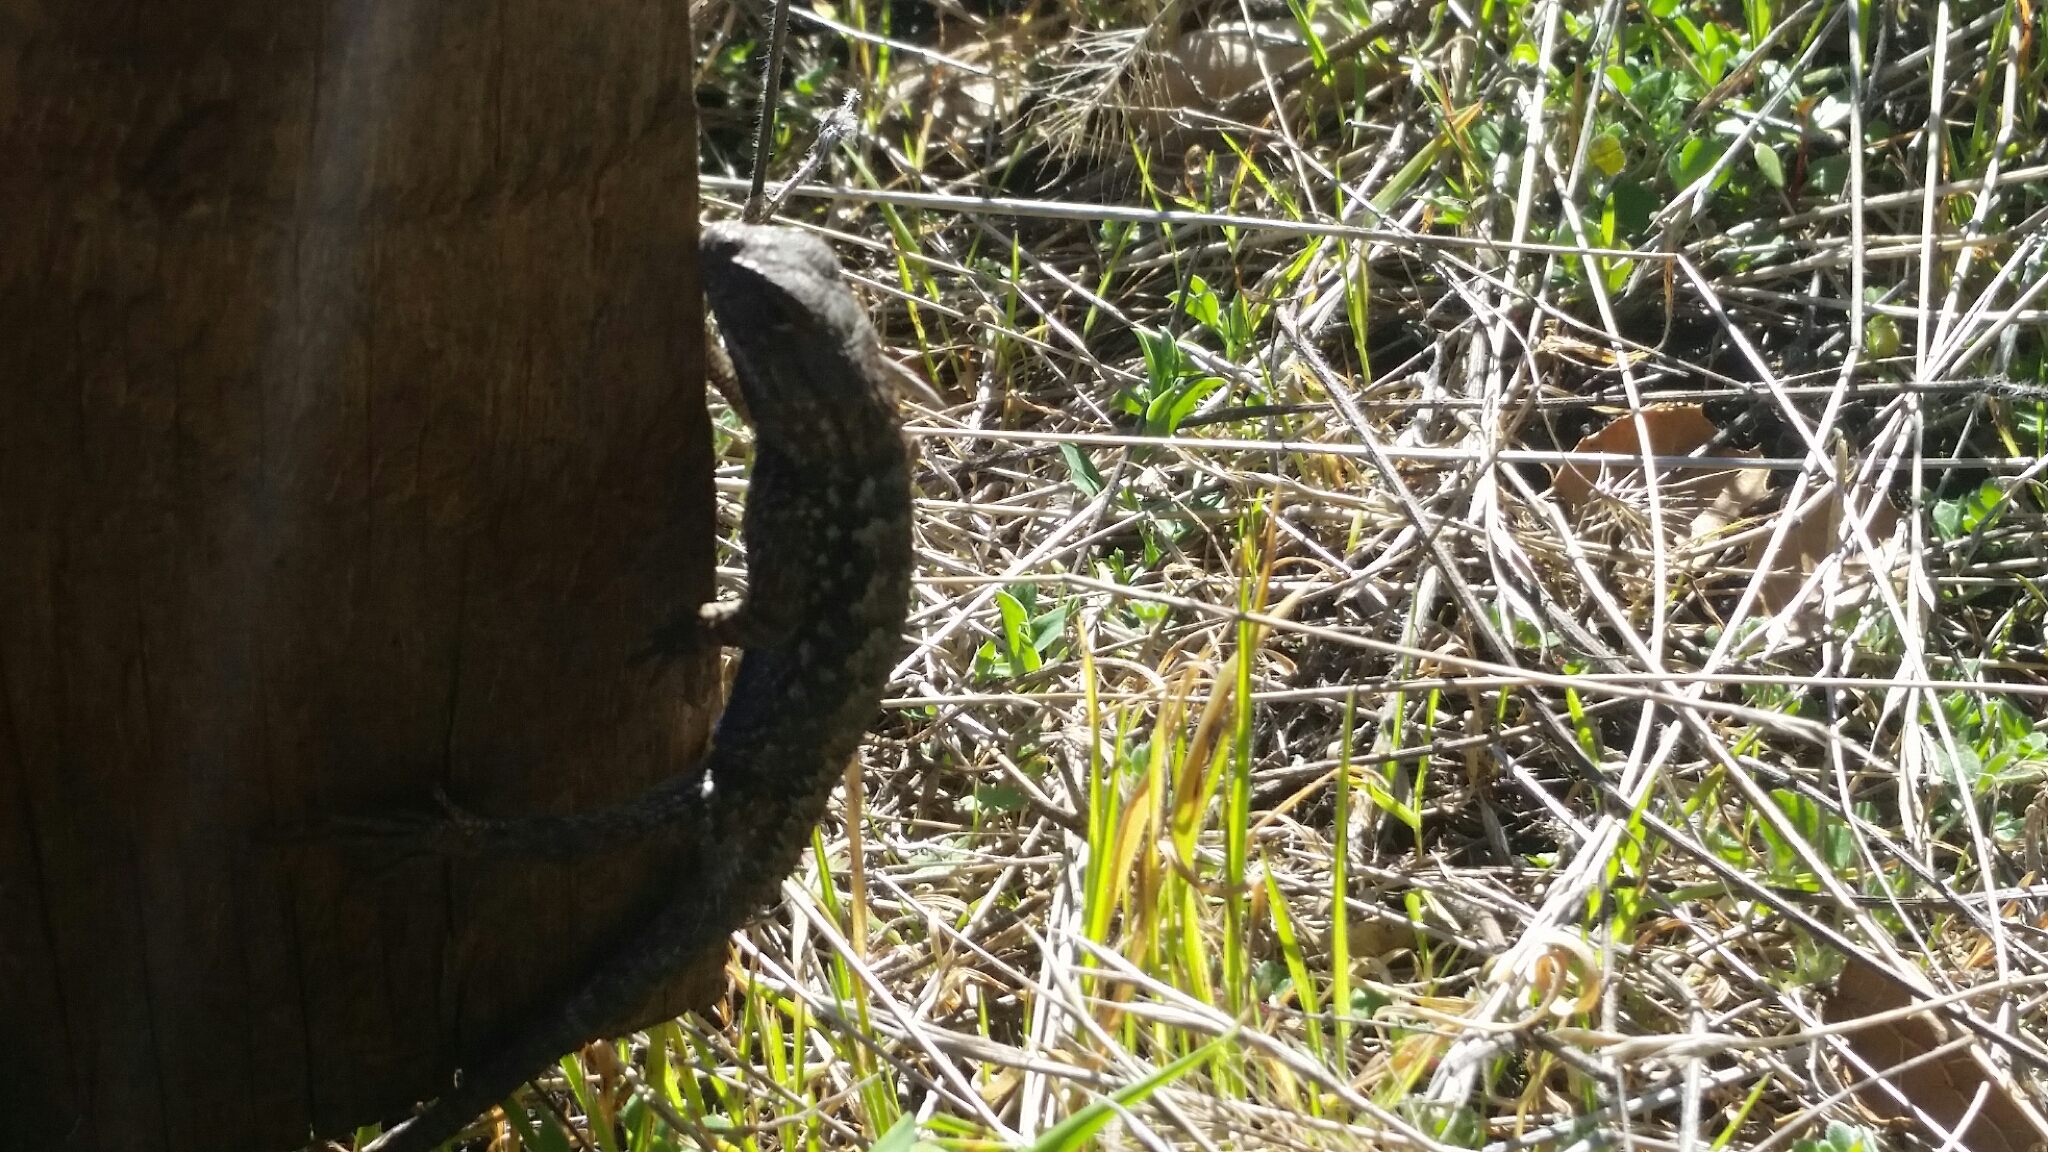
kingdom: Animalia
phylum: Chordata
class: Squamata
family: Phrynosomatidae
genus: Sceloporus
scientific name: Sceloporus occidentalis
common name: Western fence lizard
